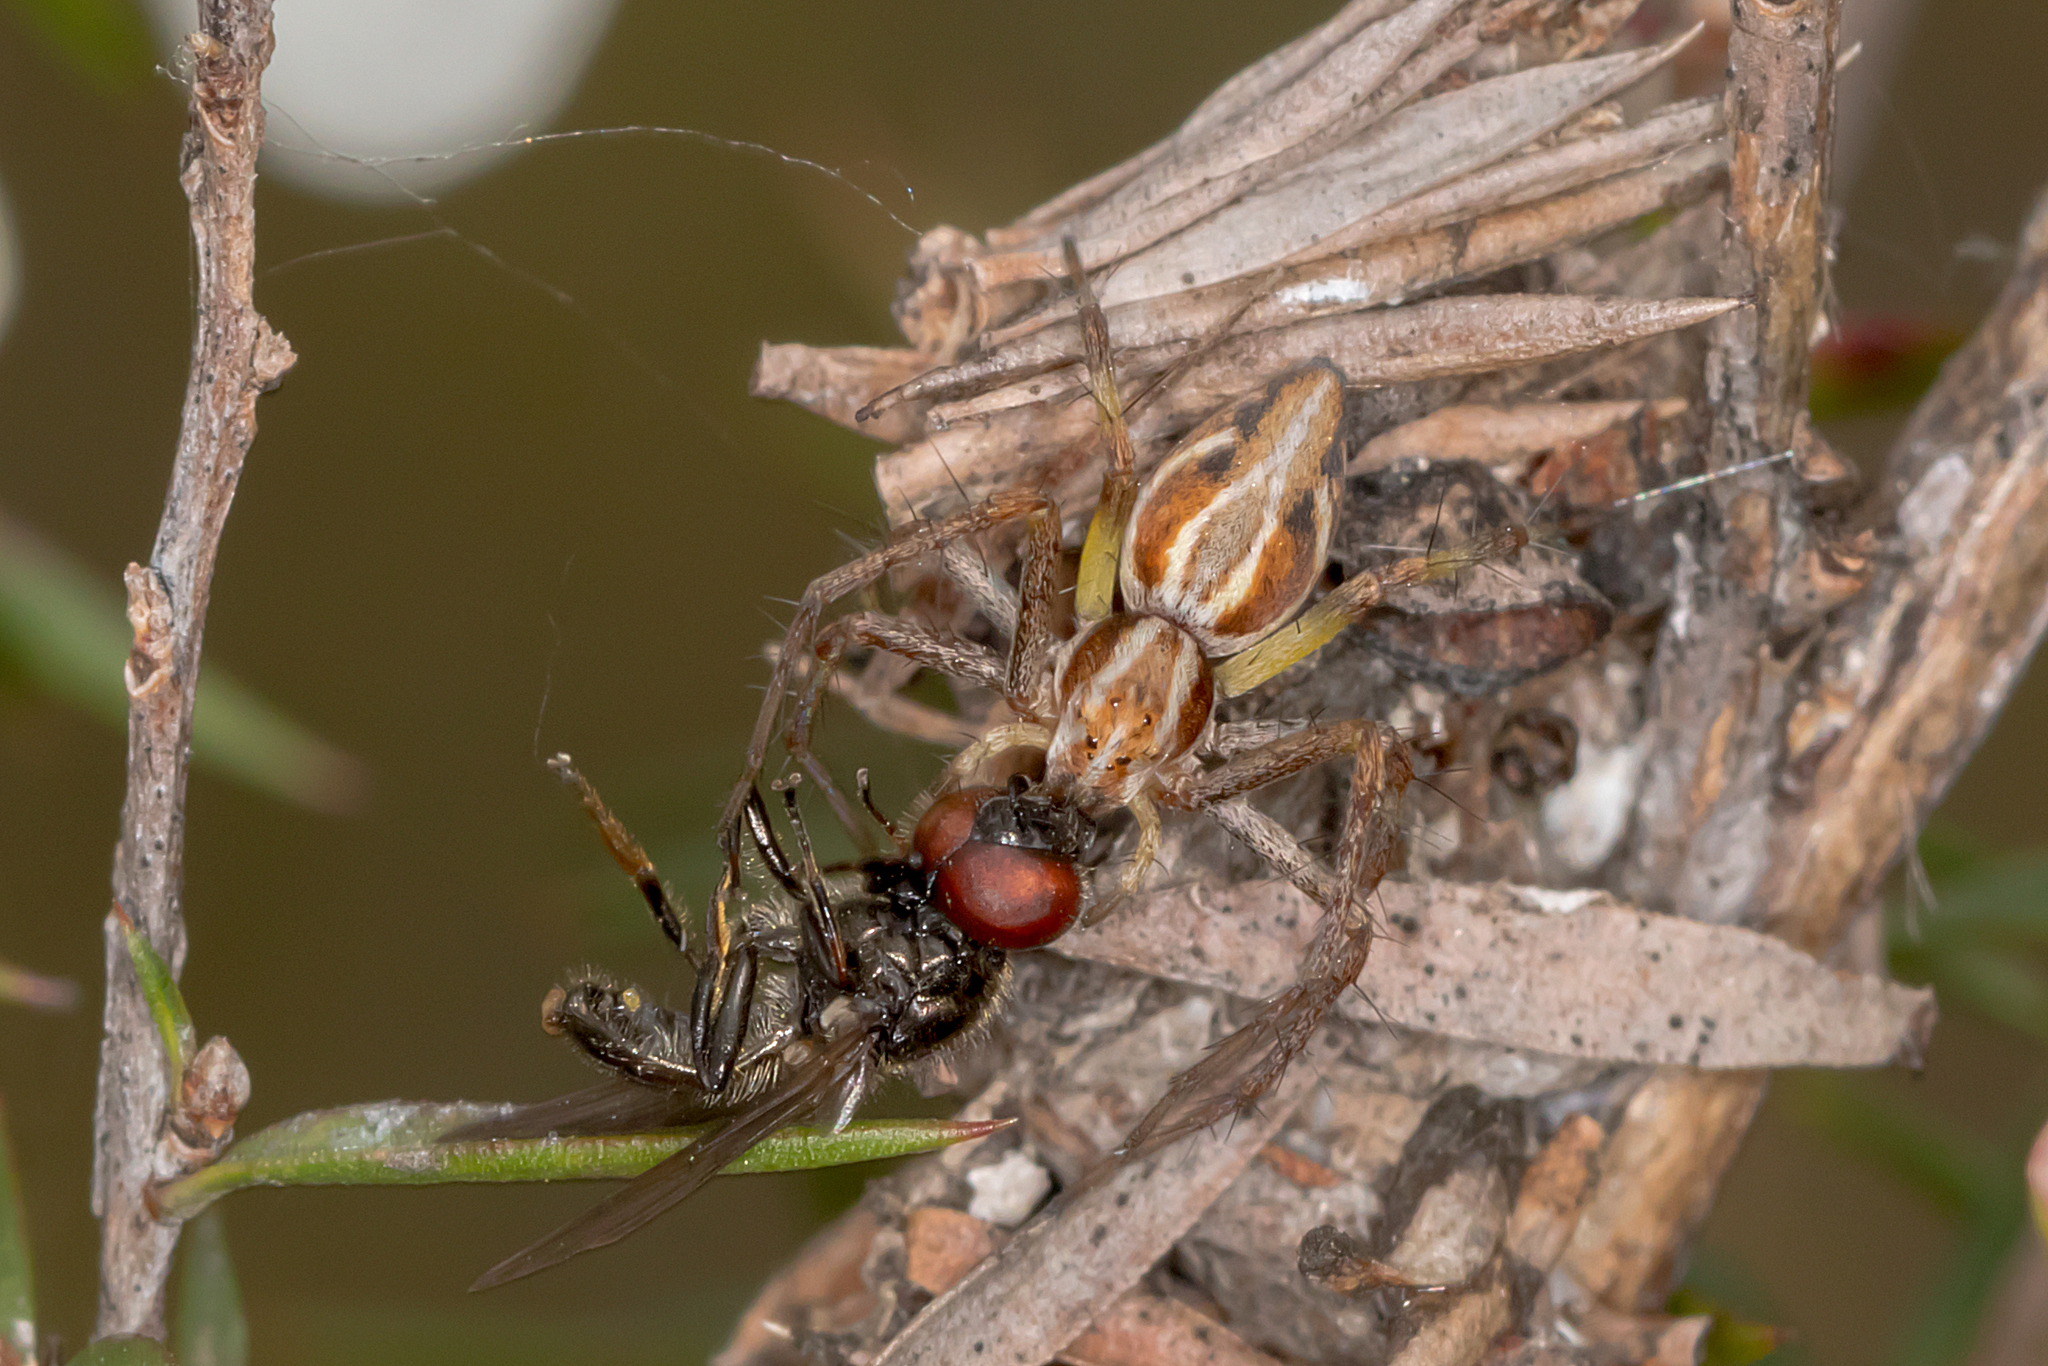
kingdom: Animalia
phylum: Arthropoda
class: Arachnida
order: Araneae
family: Oxyopidae
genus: Oxyopes
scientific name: Oxyopes amoenus
